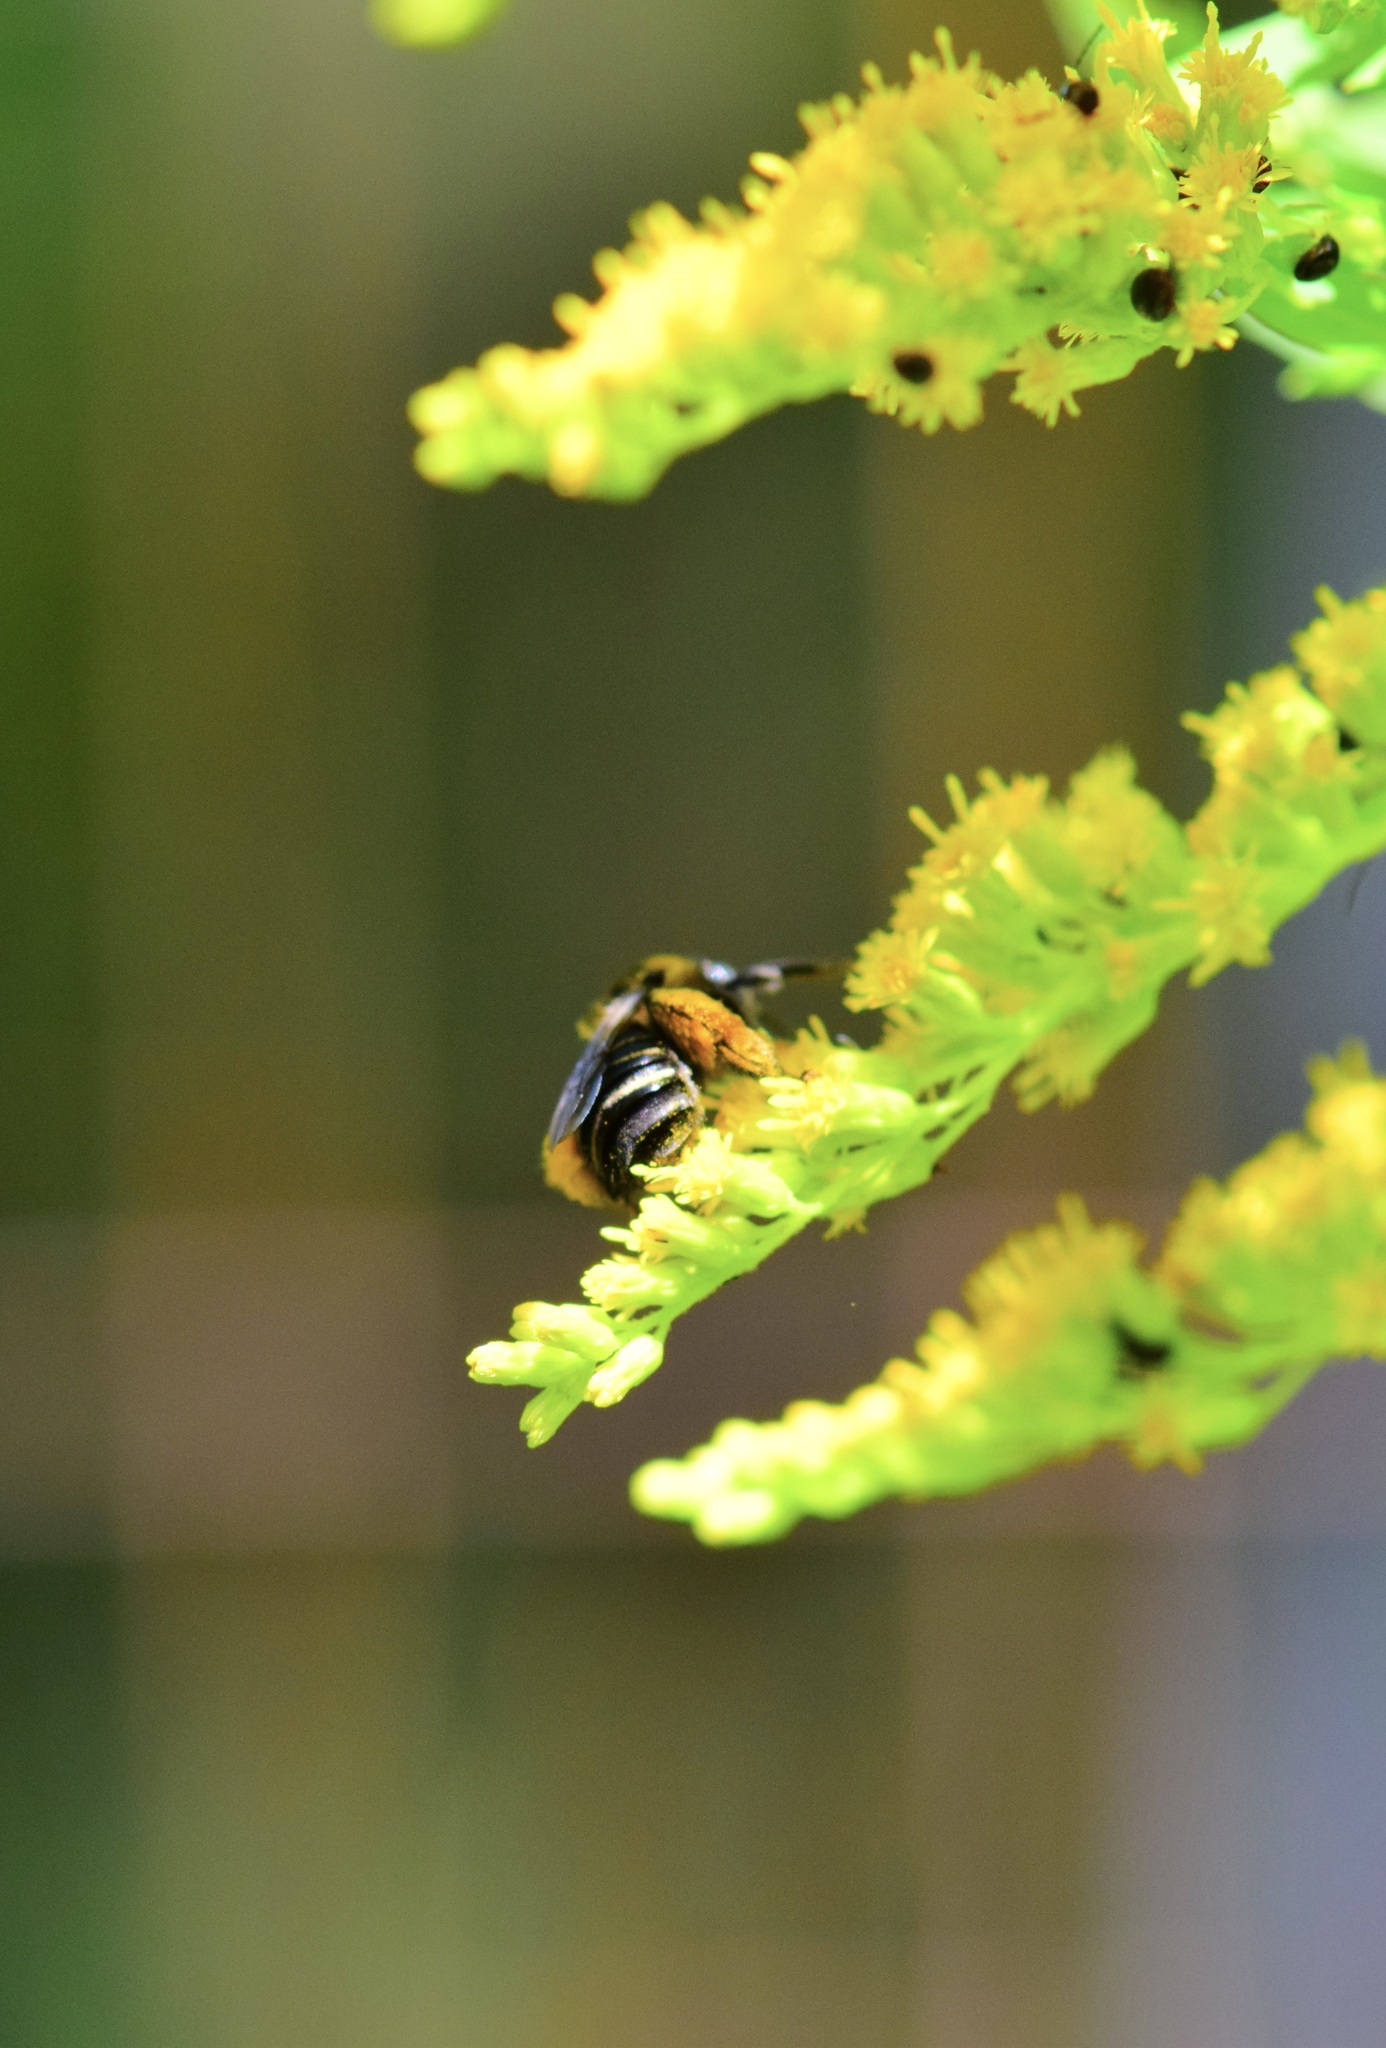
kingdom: Animalia
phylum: Arthropoda
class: Insecta
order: Hymenoptera
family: Apidae
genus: Melissodes
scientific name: Melissodes druriellus
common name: Drury's long-horned bee
